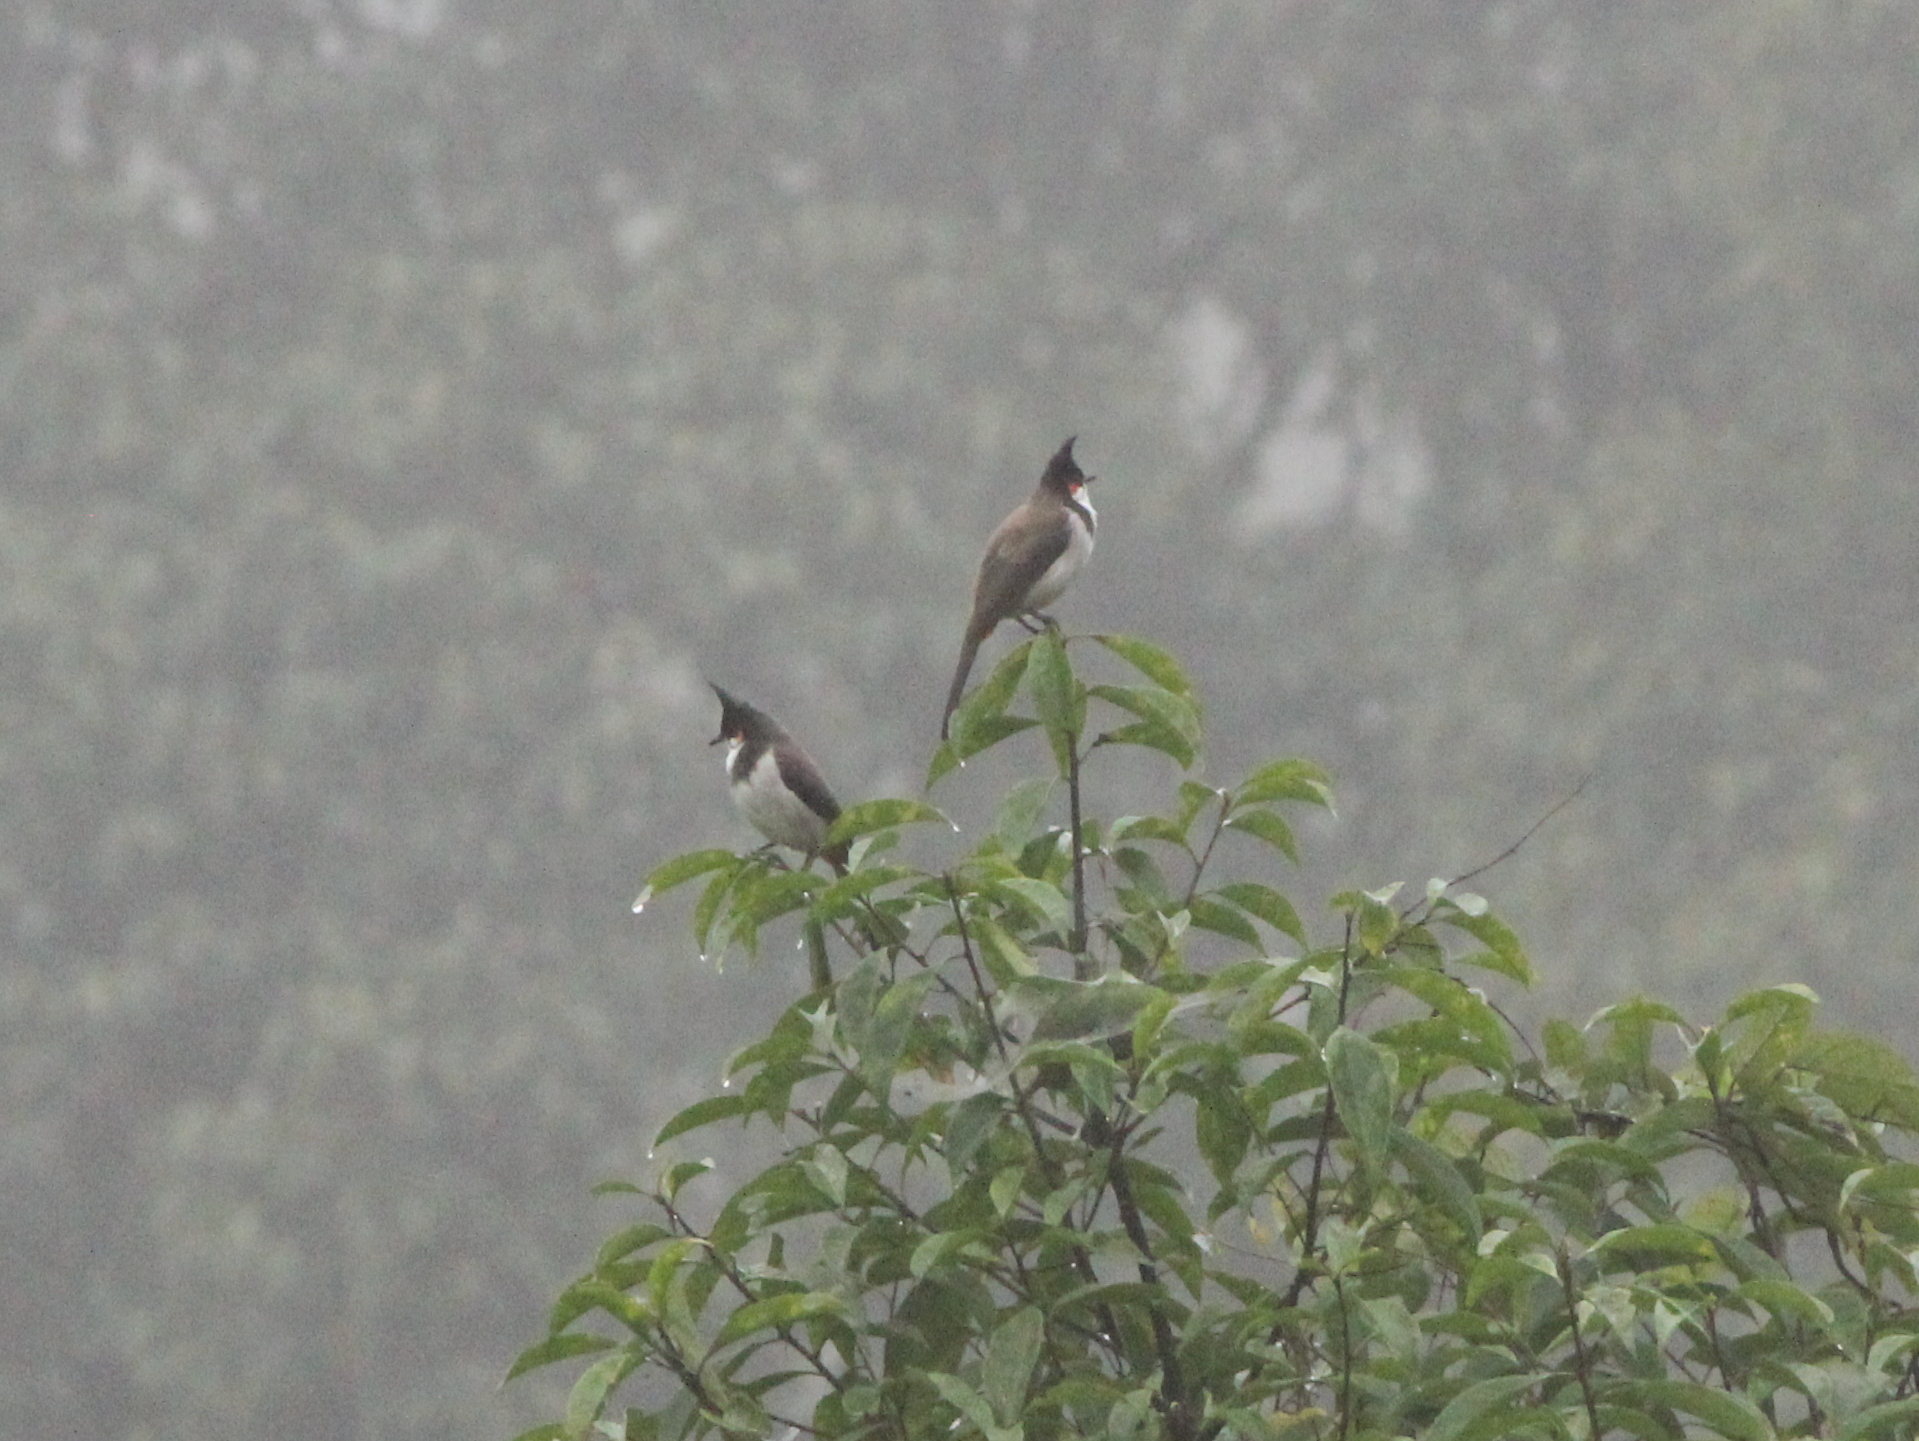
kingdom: Animalia
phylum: Chordata
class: Aves
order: Passeriformes
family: Pycnonotidae
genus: Pycnonotus
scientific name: Pycnonotus jocosus
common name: Red-whiskered bulbul
